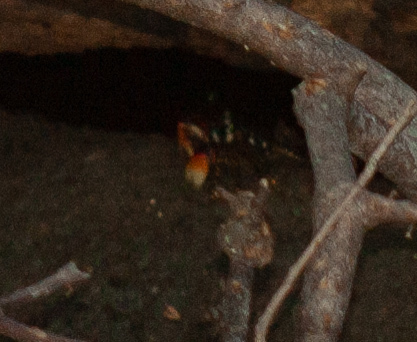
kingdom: Animalia
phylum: Arthropoda
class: Malacostraca
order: Decapoda
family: Grapsidae
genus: Goniopsis
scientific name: Goniopsis pulchra
